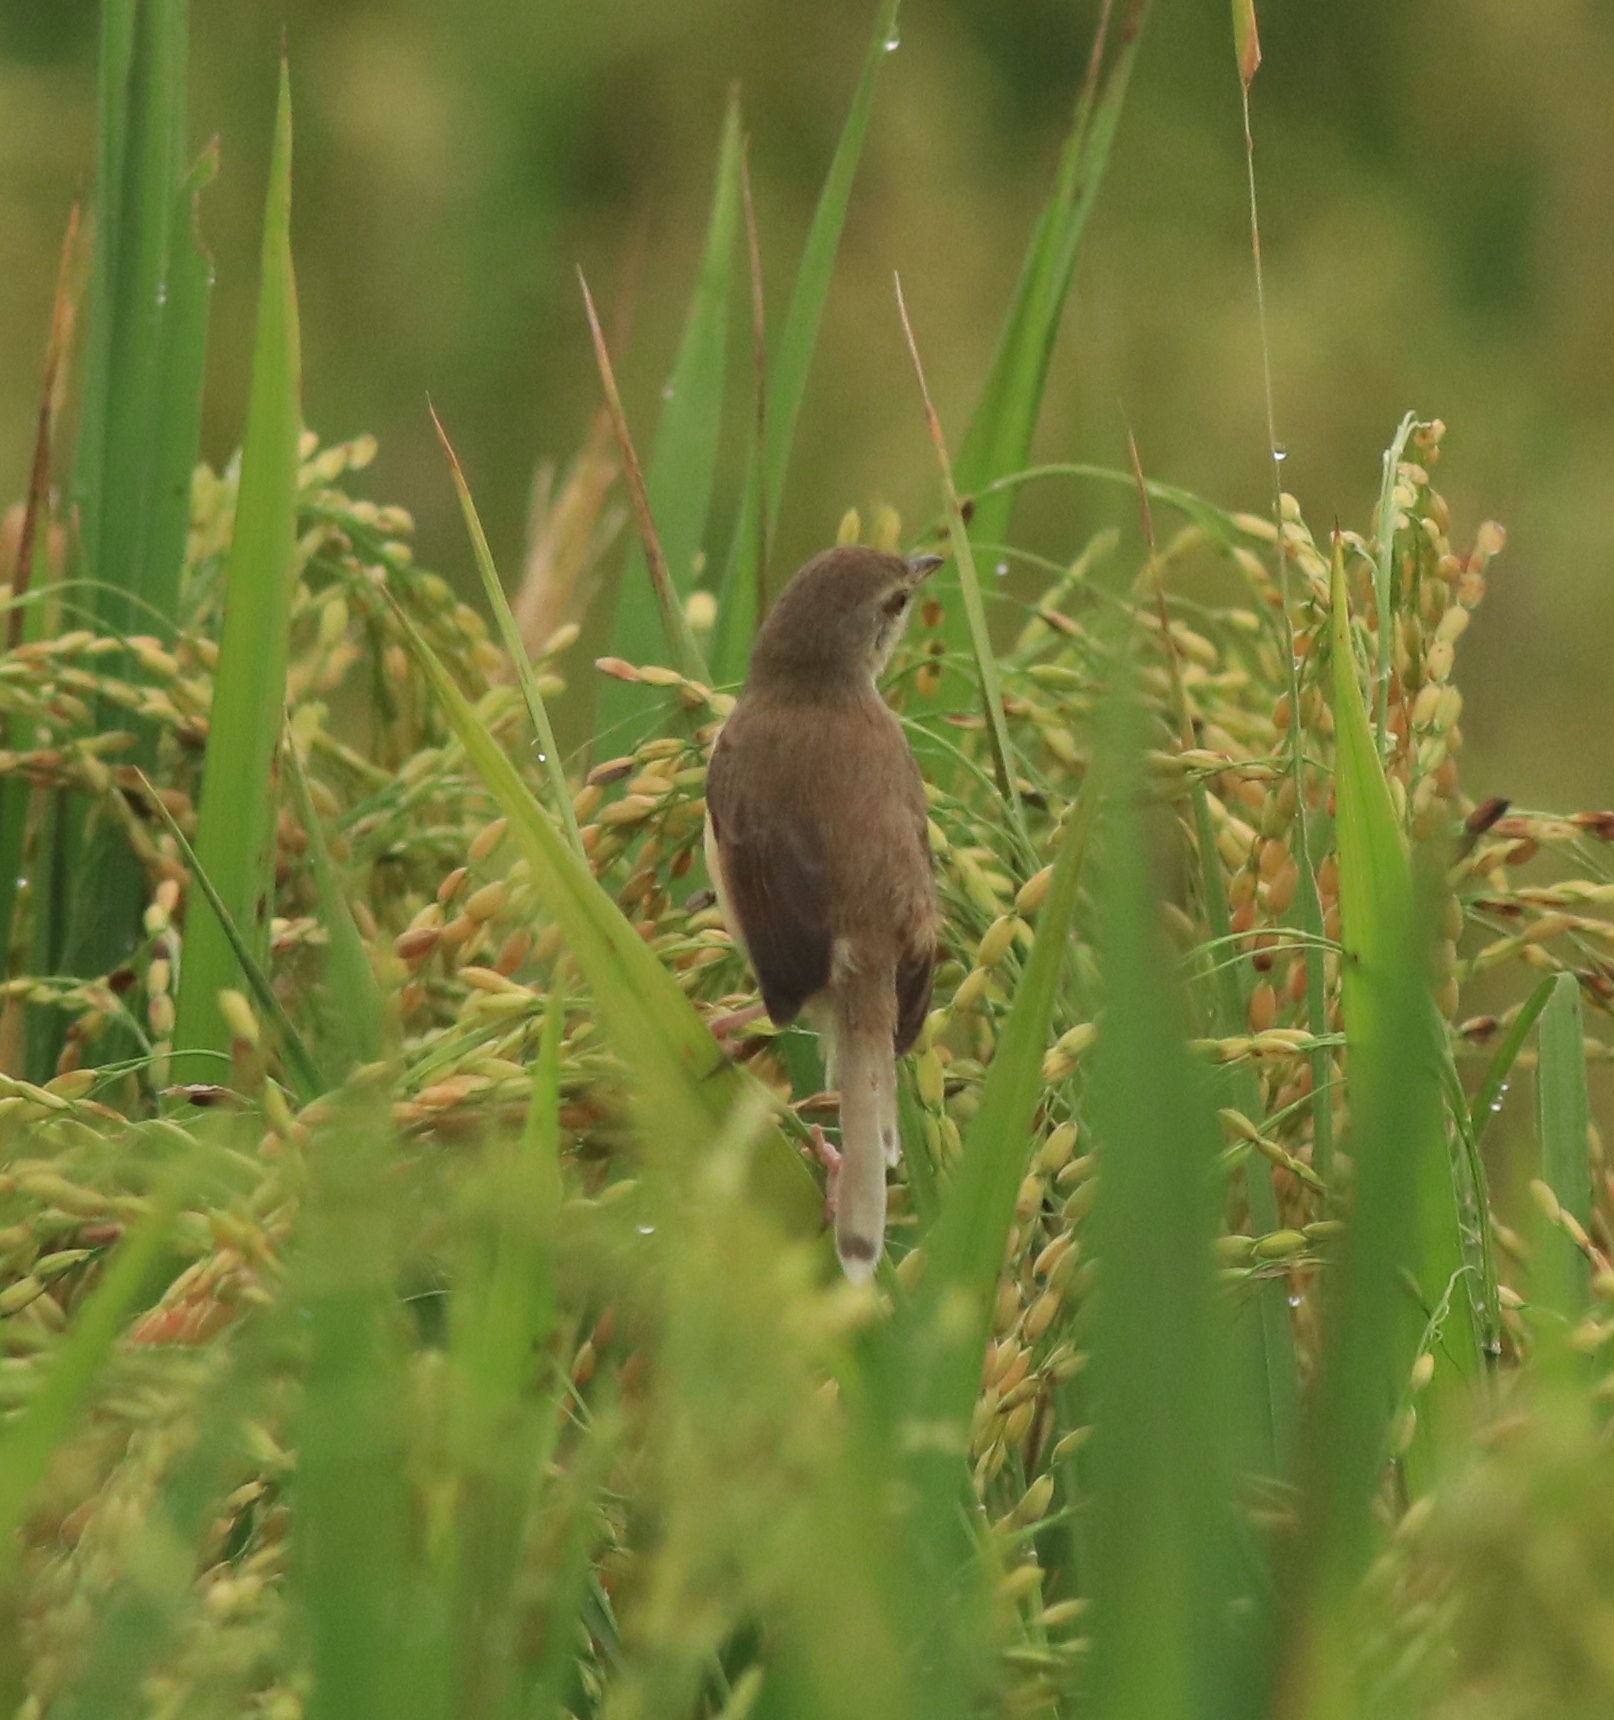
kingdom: Animalia
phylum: Chordata
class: Aves
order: Passeriformes
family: Cisticolidae
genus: Prinia
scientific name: Prinia inornata
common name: Plain prinia
